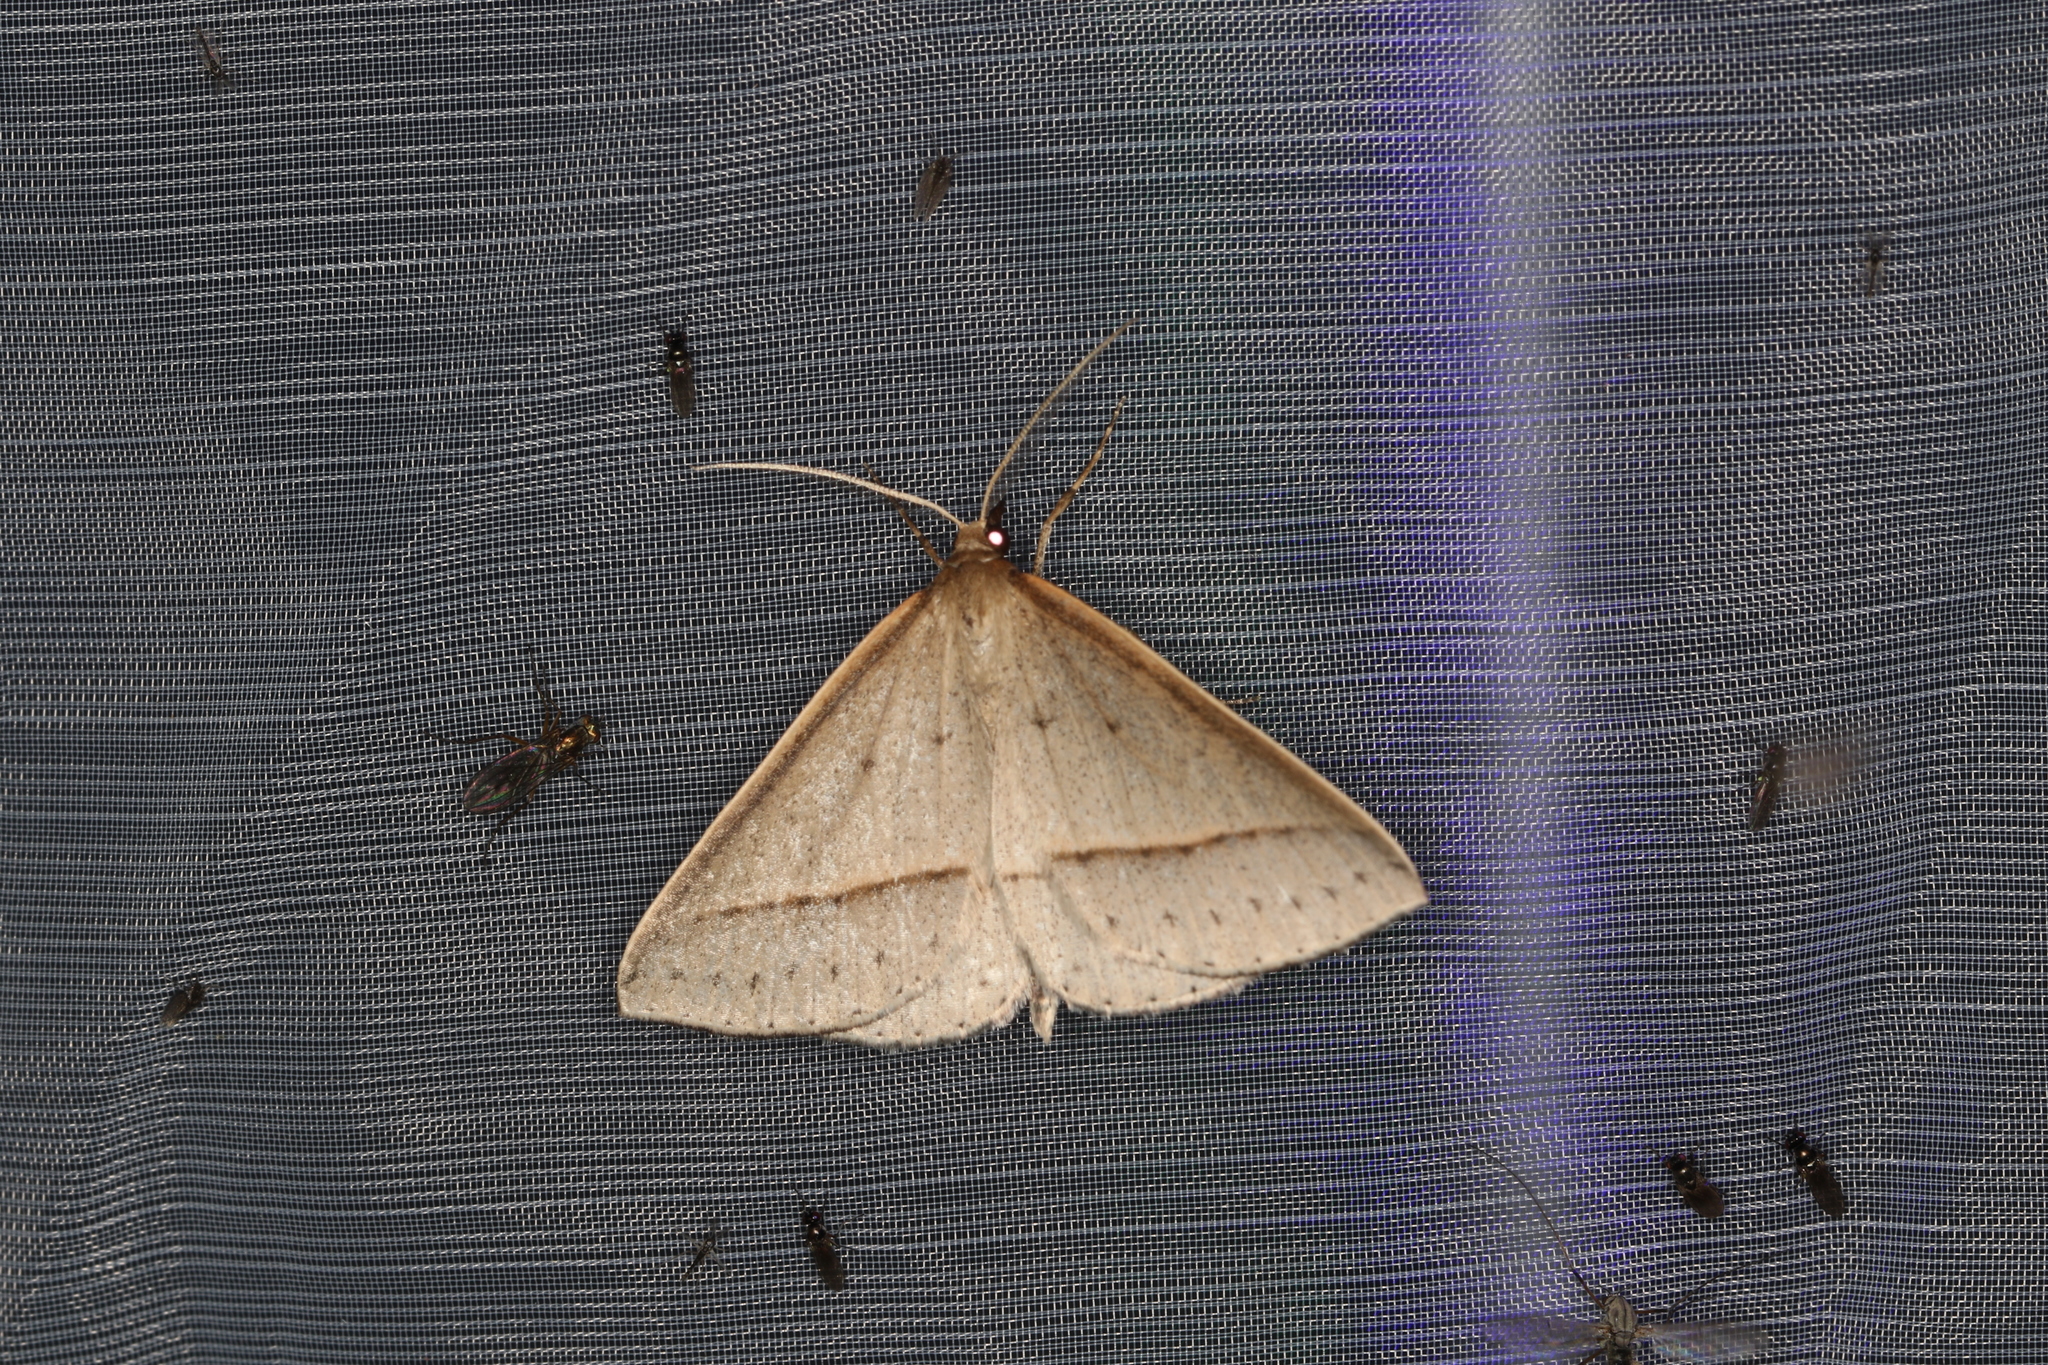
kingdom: Animalia
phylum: Arthropoda
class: Insecta
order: Lepidoptera
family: Geometridae
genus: Epidesmia
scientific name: Epidesmia tryxaria
